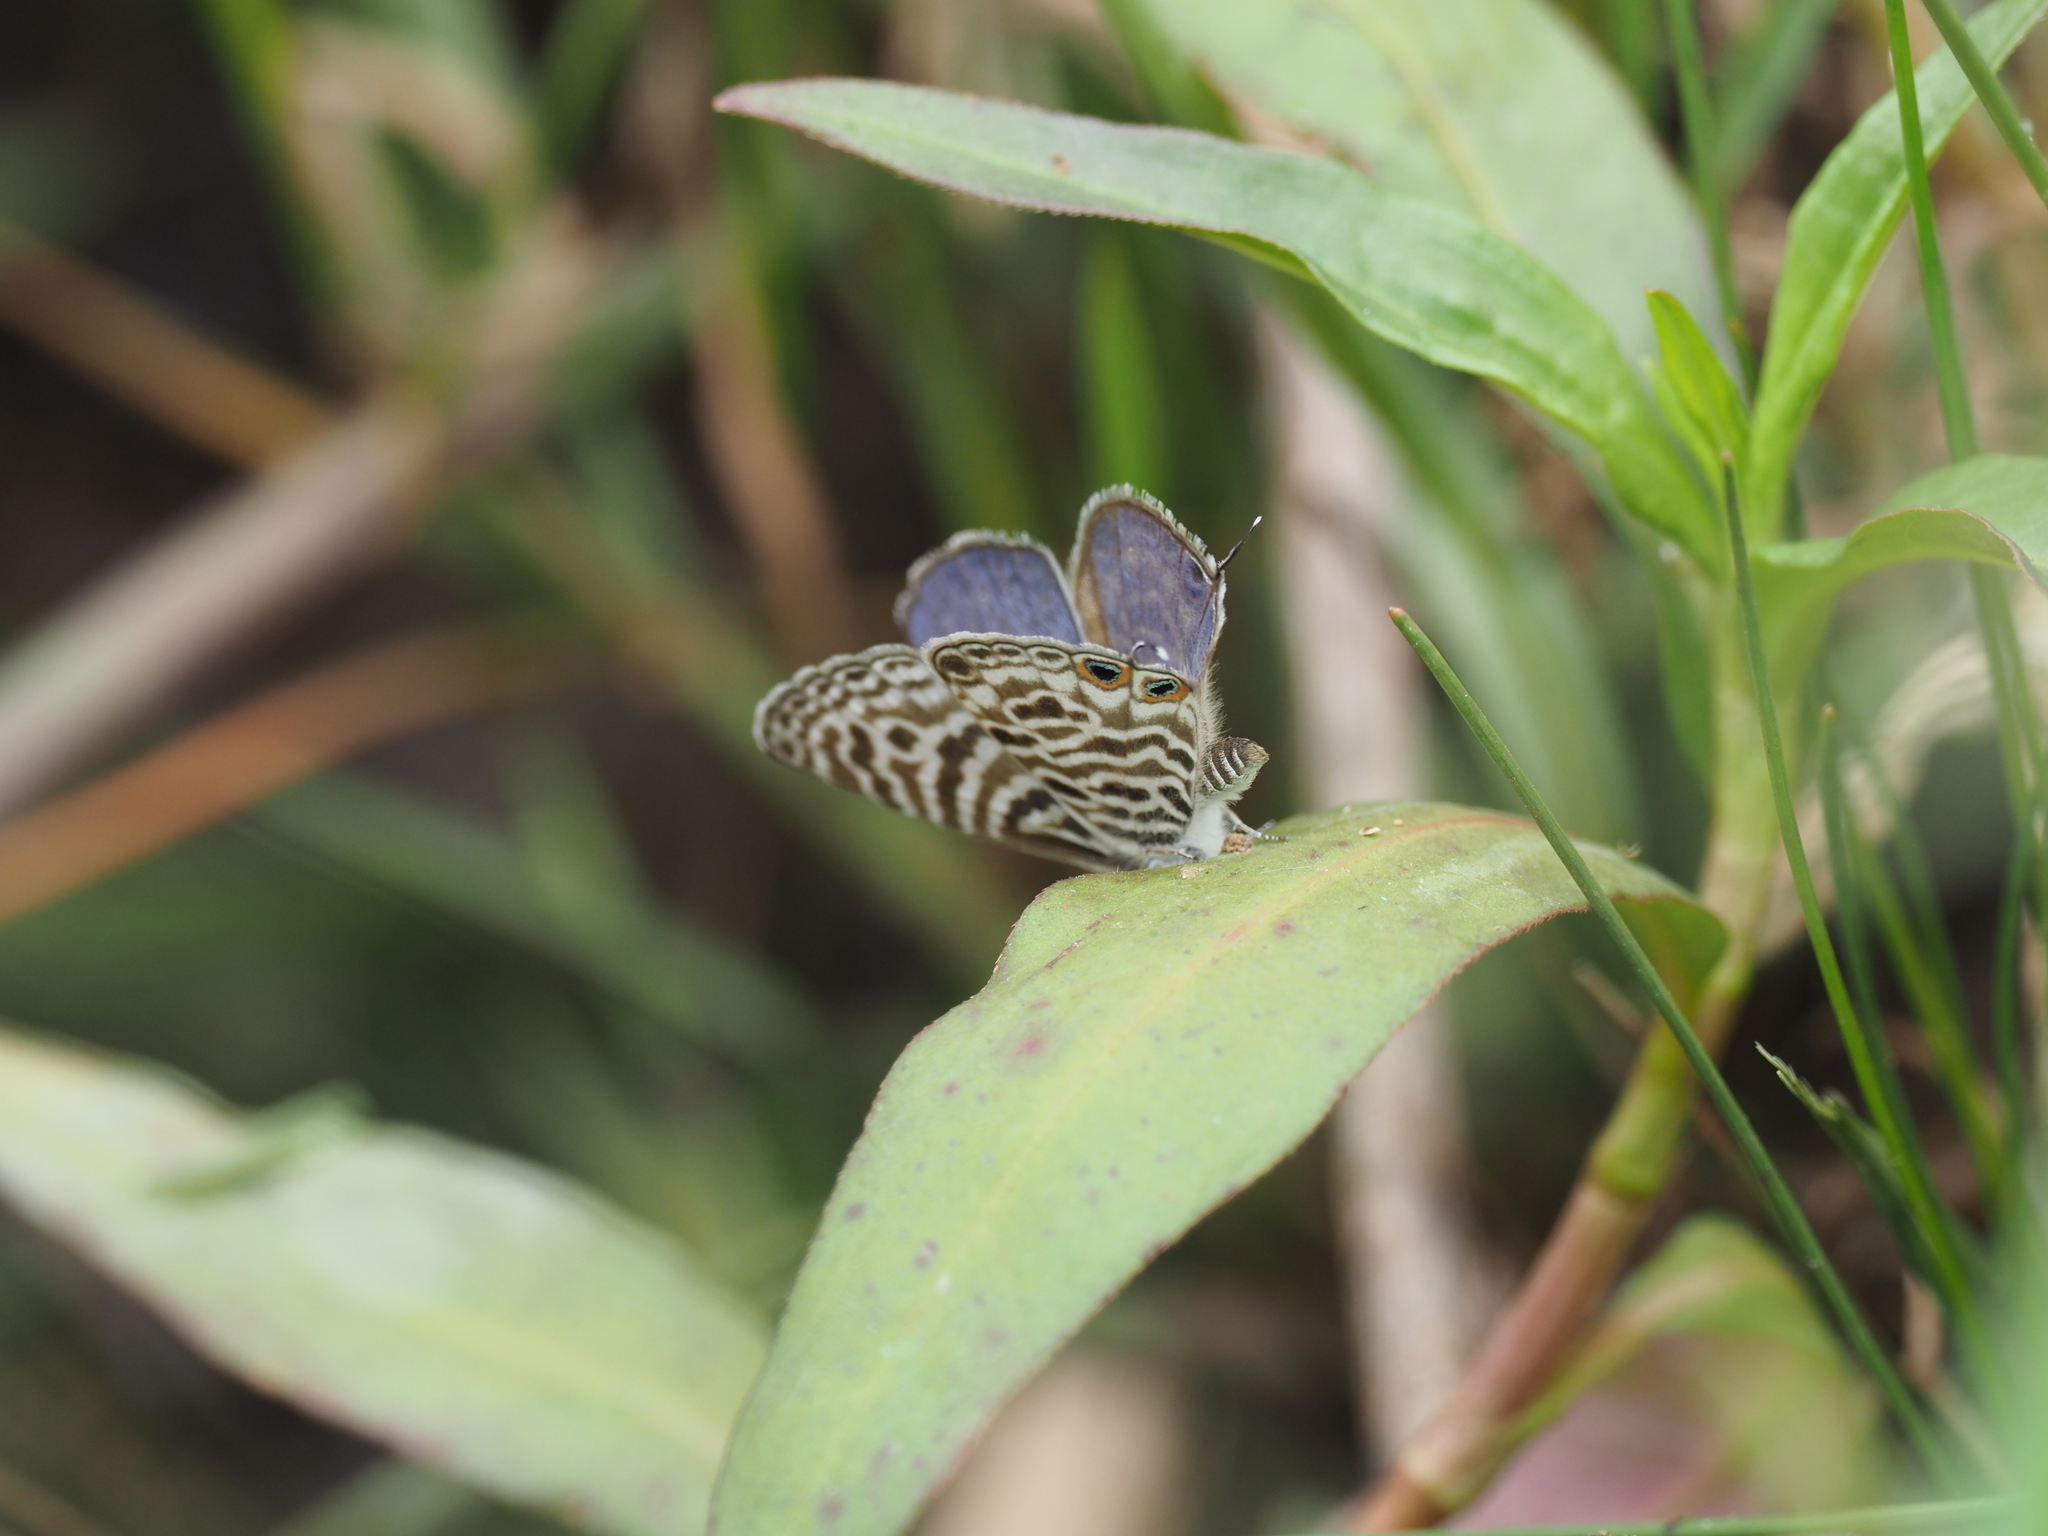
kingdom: Animalia
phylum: Arthropoda
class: Insecta
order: Lepidoptera
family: Lycaenidae
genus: Leptotes
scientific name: Leptotes
